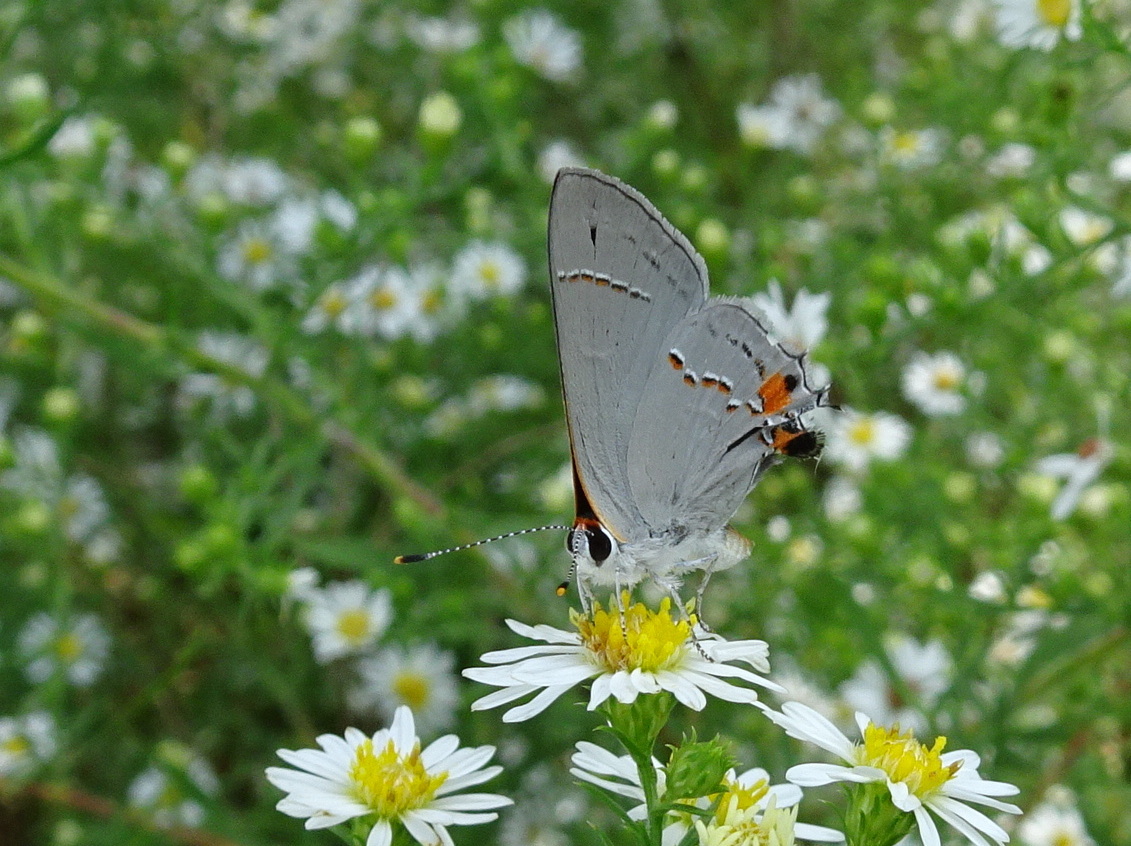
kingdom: Animalia
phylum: Arthropoda
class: Insecta
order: Lepidoptera
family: Lycaenidae
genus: Strymon
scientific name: Strymon melinus
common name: Gray hairstreak
